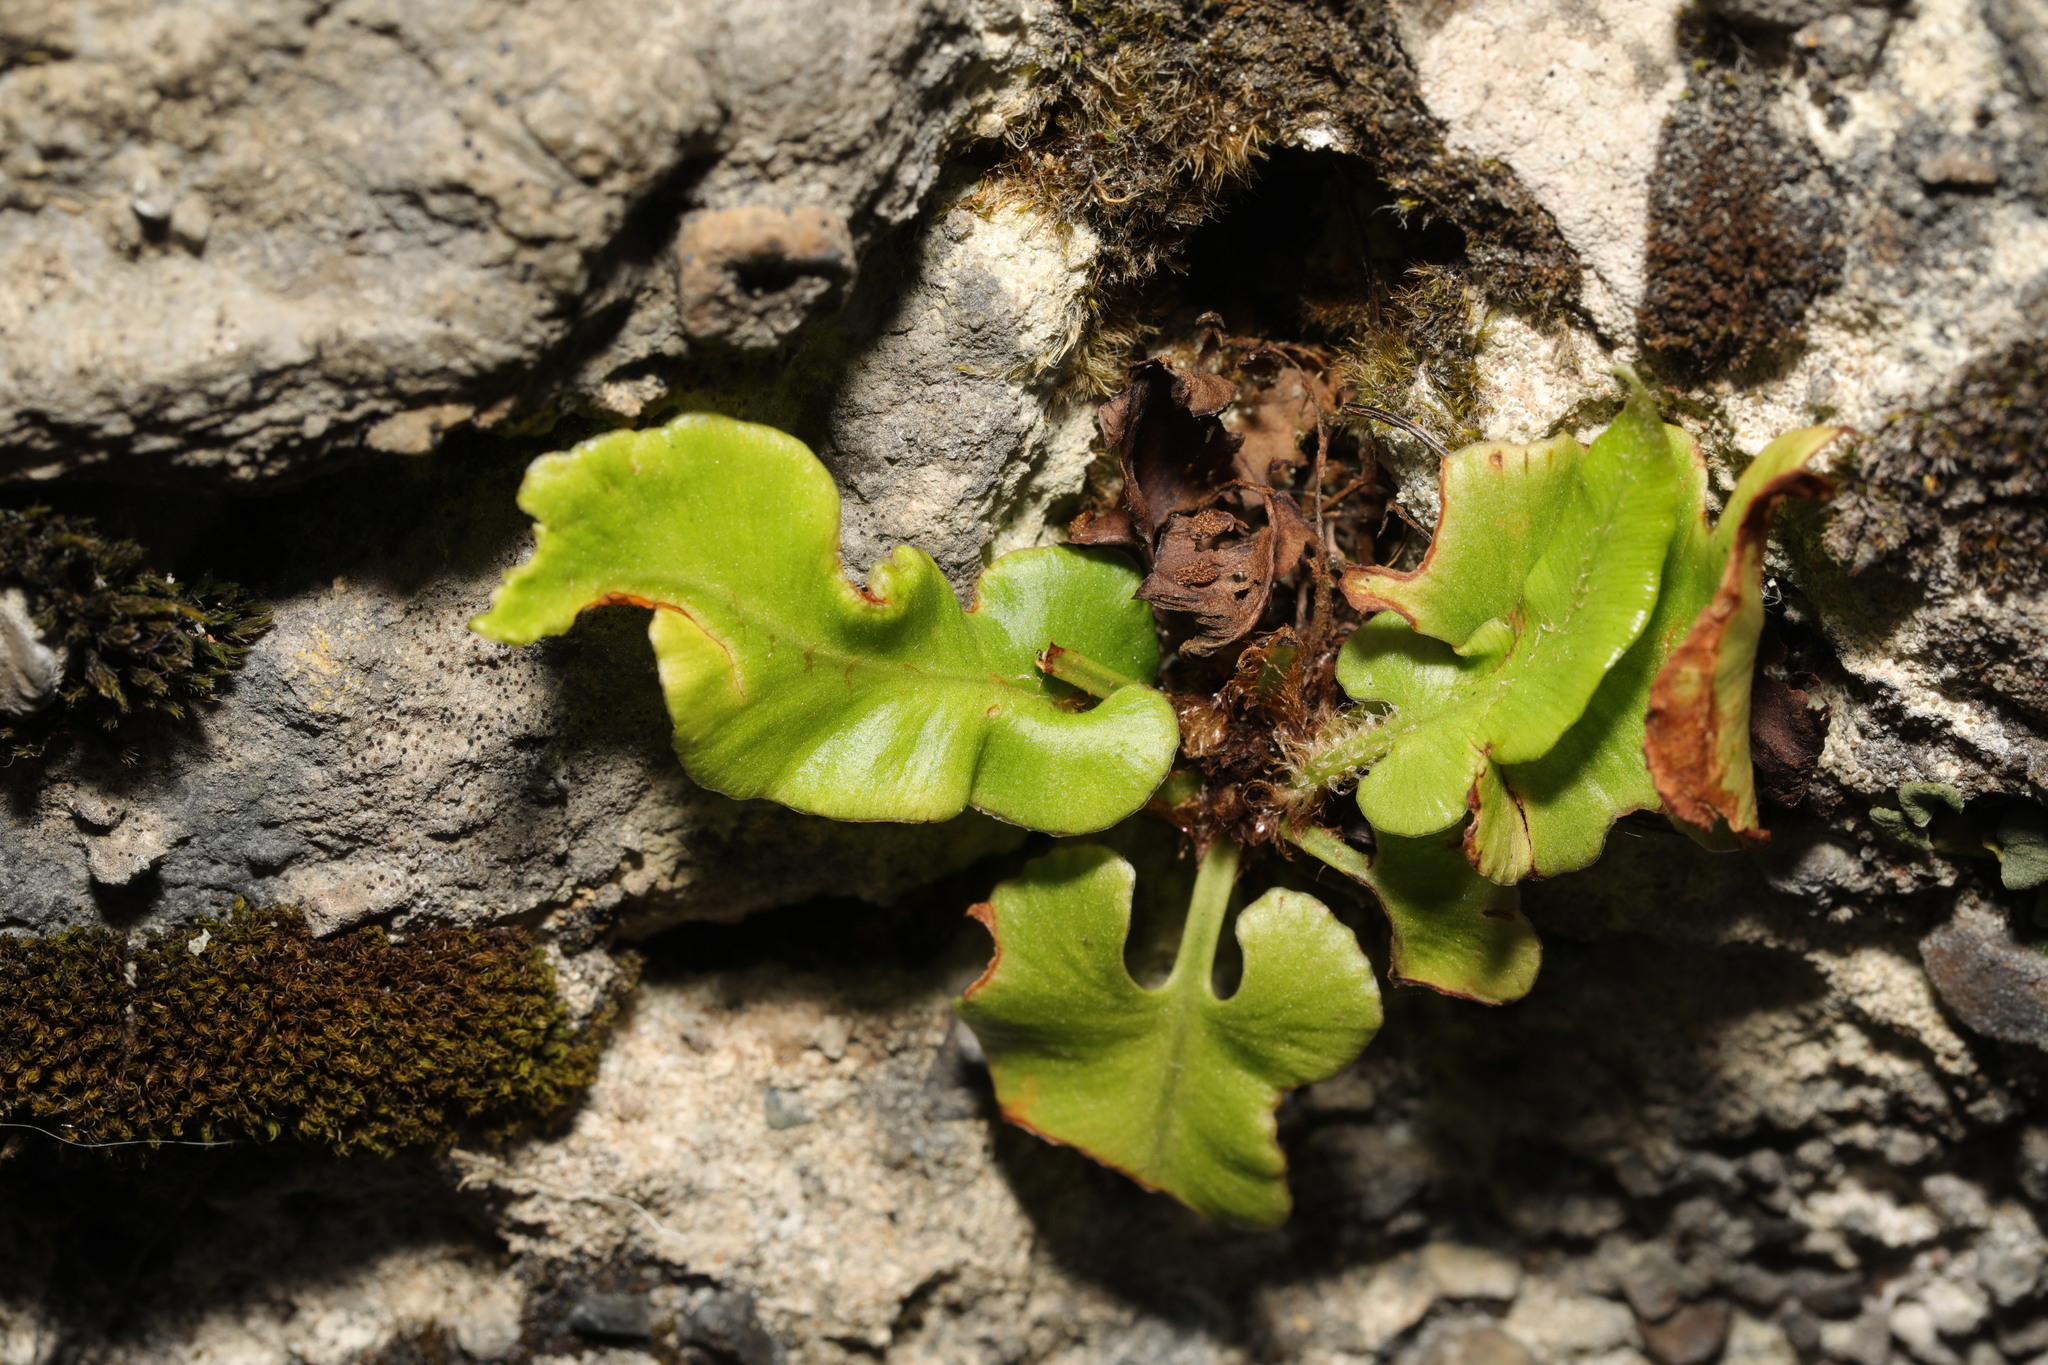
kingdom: Plantae
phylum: Tracheophyta
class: Polypodiopsida
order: Polypodiales
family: Aspleniaceae
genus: Asplenium
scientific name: Asplenium scolopendrium
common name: Hart's-tongue fern
